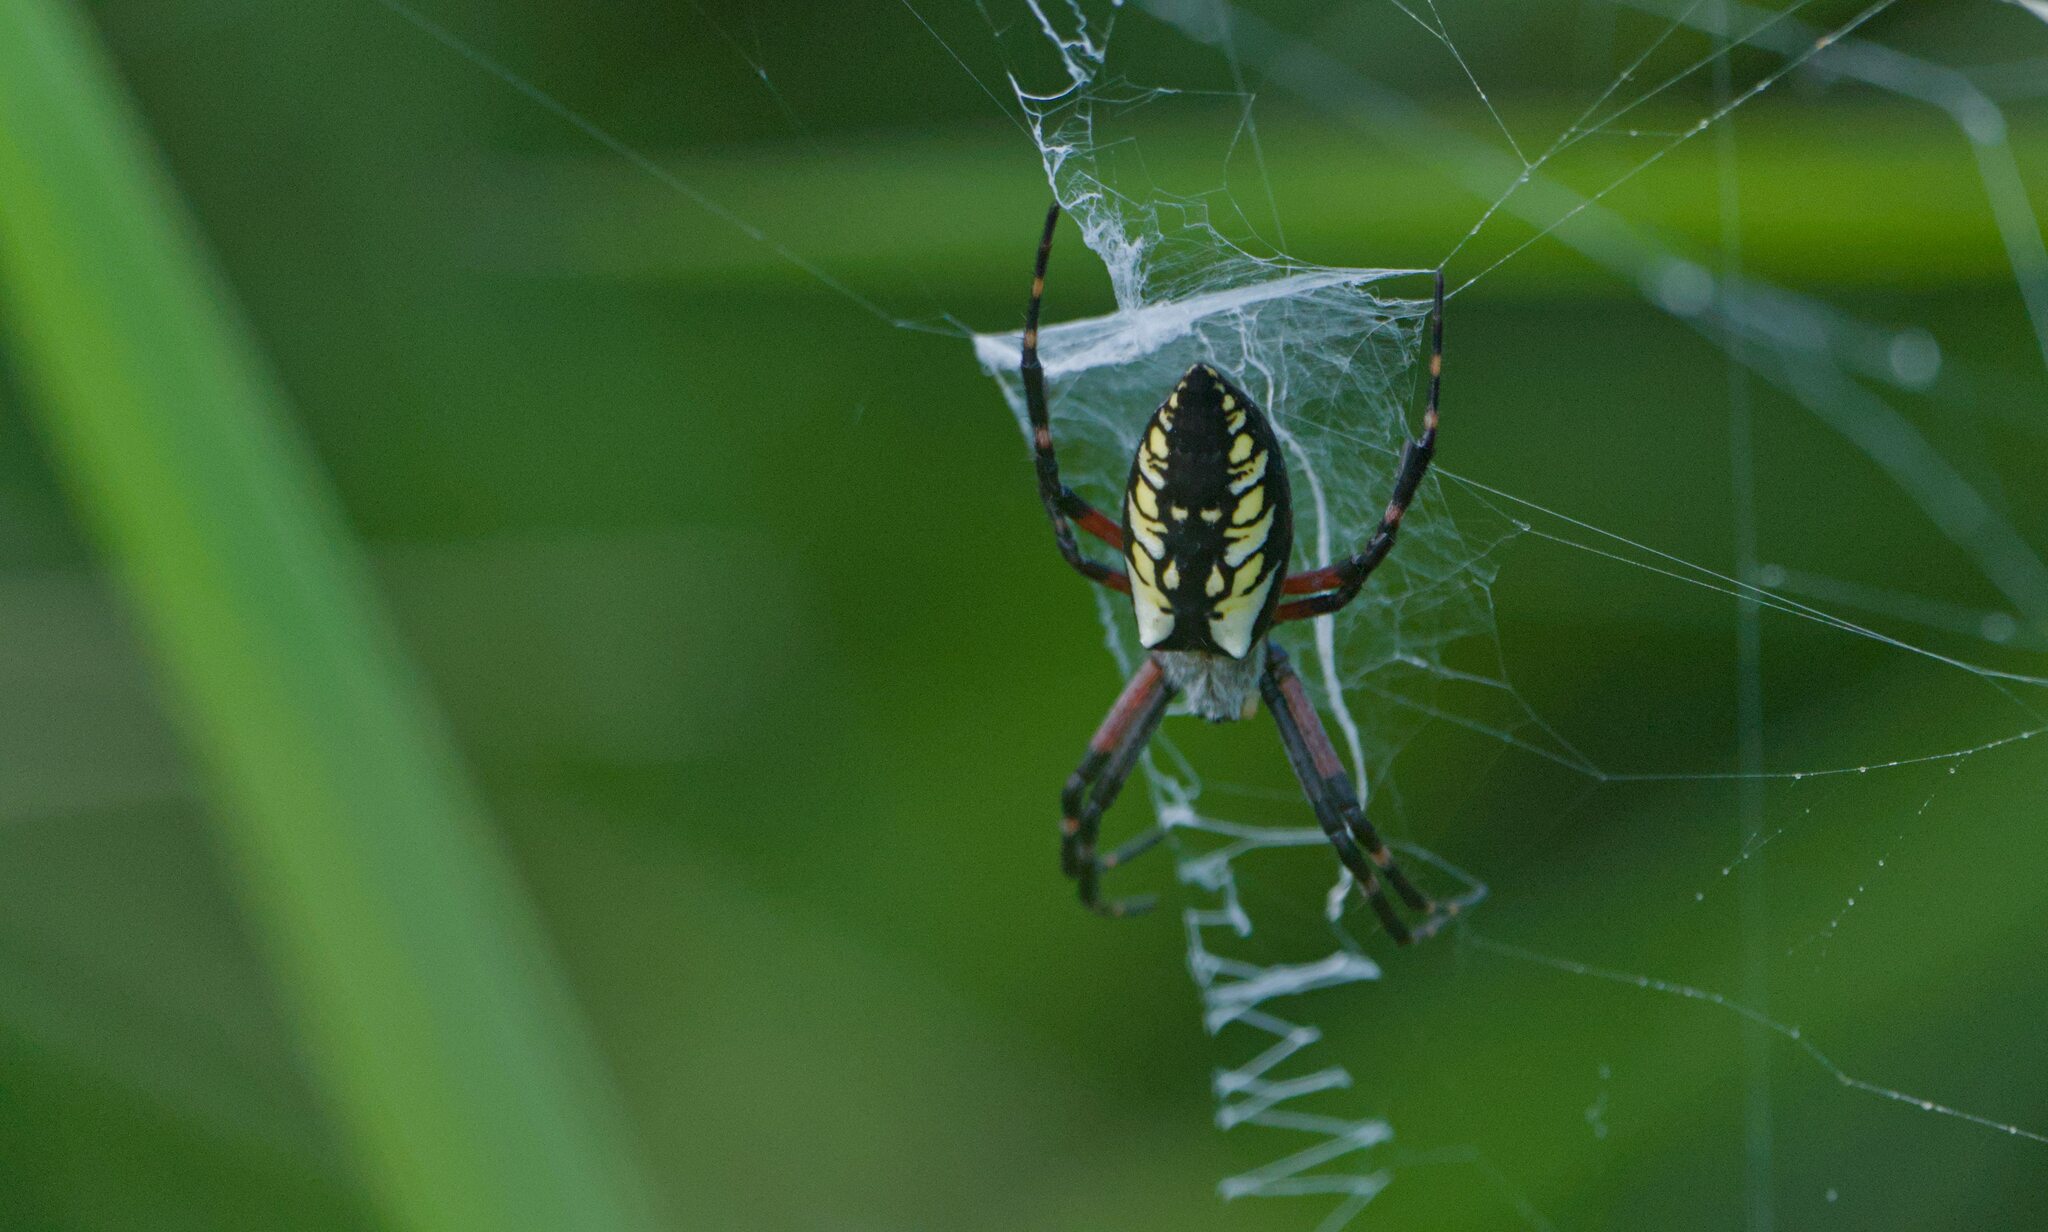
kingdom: Animalia
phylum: Arthropoda
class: Arachnida
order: Araneae
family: Araneidae
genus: Argiope
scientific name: Argiope aurantia
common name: Orb weavers
